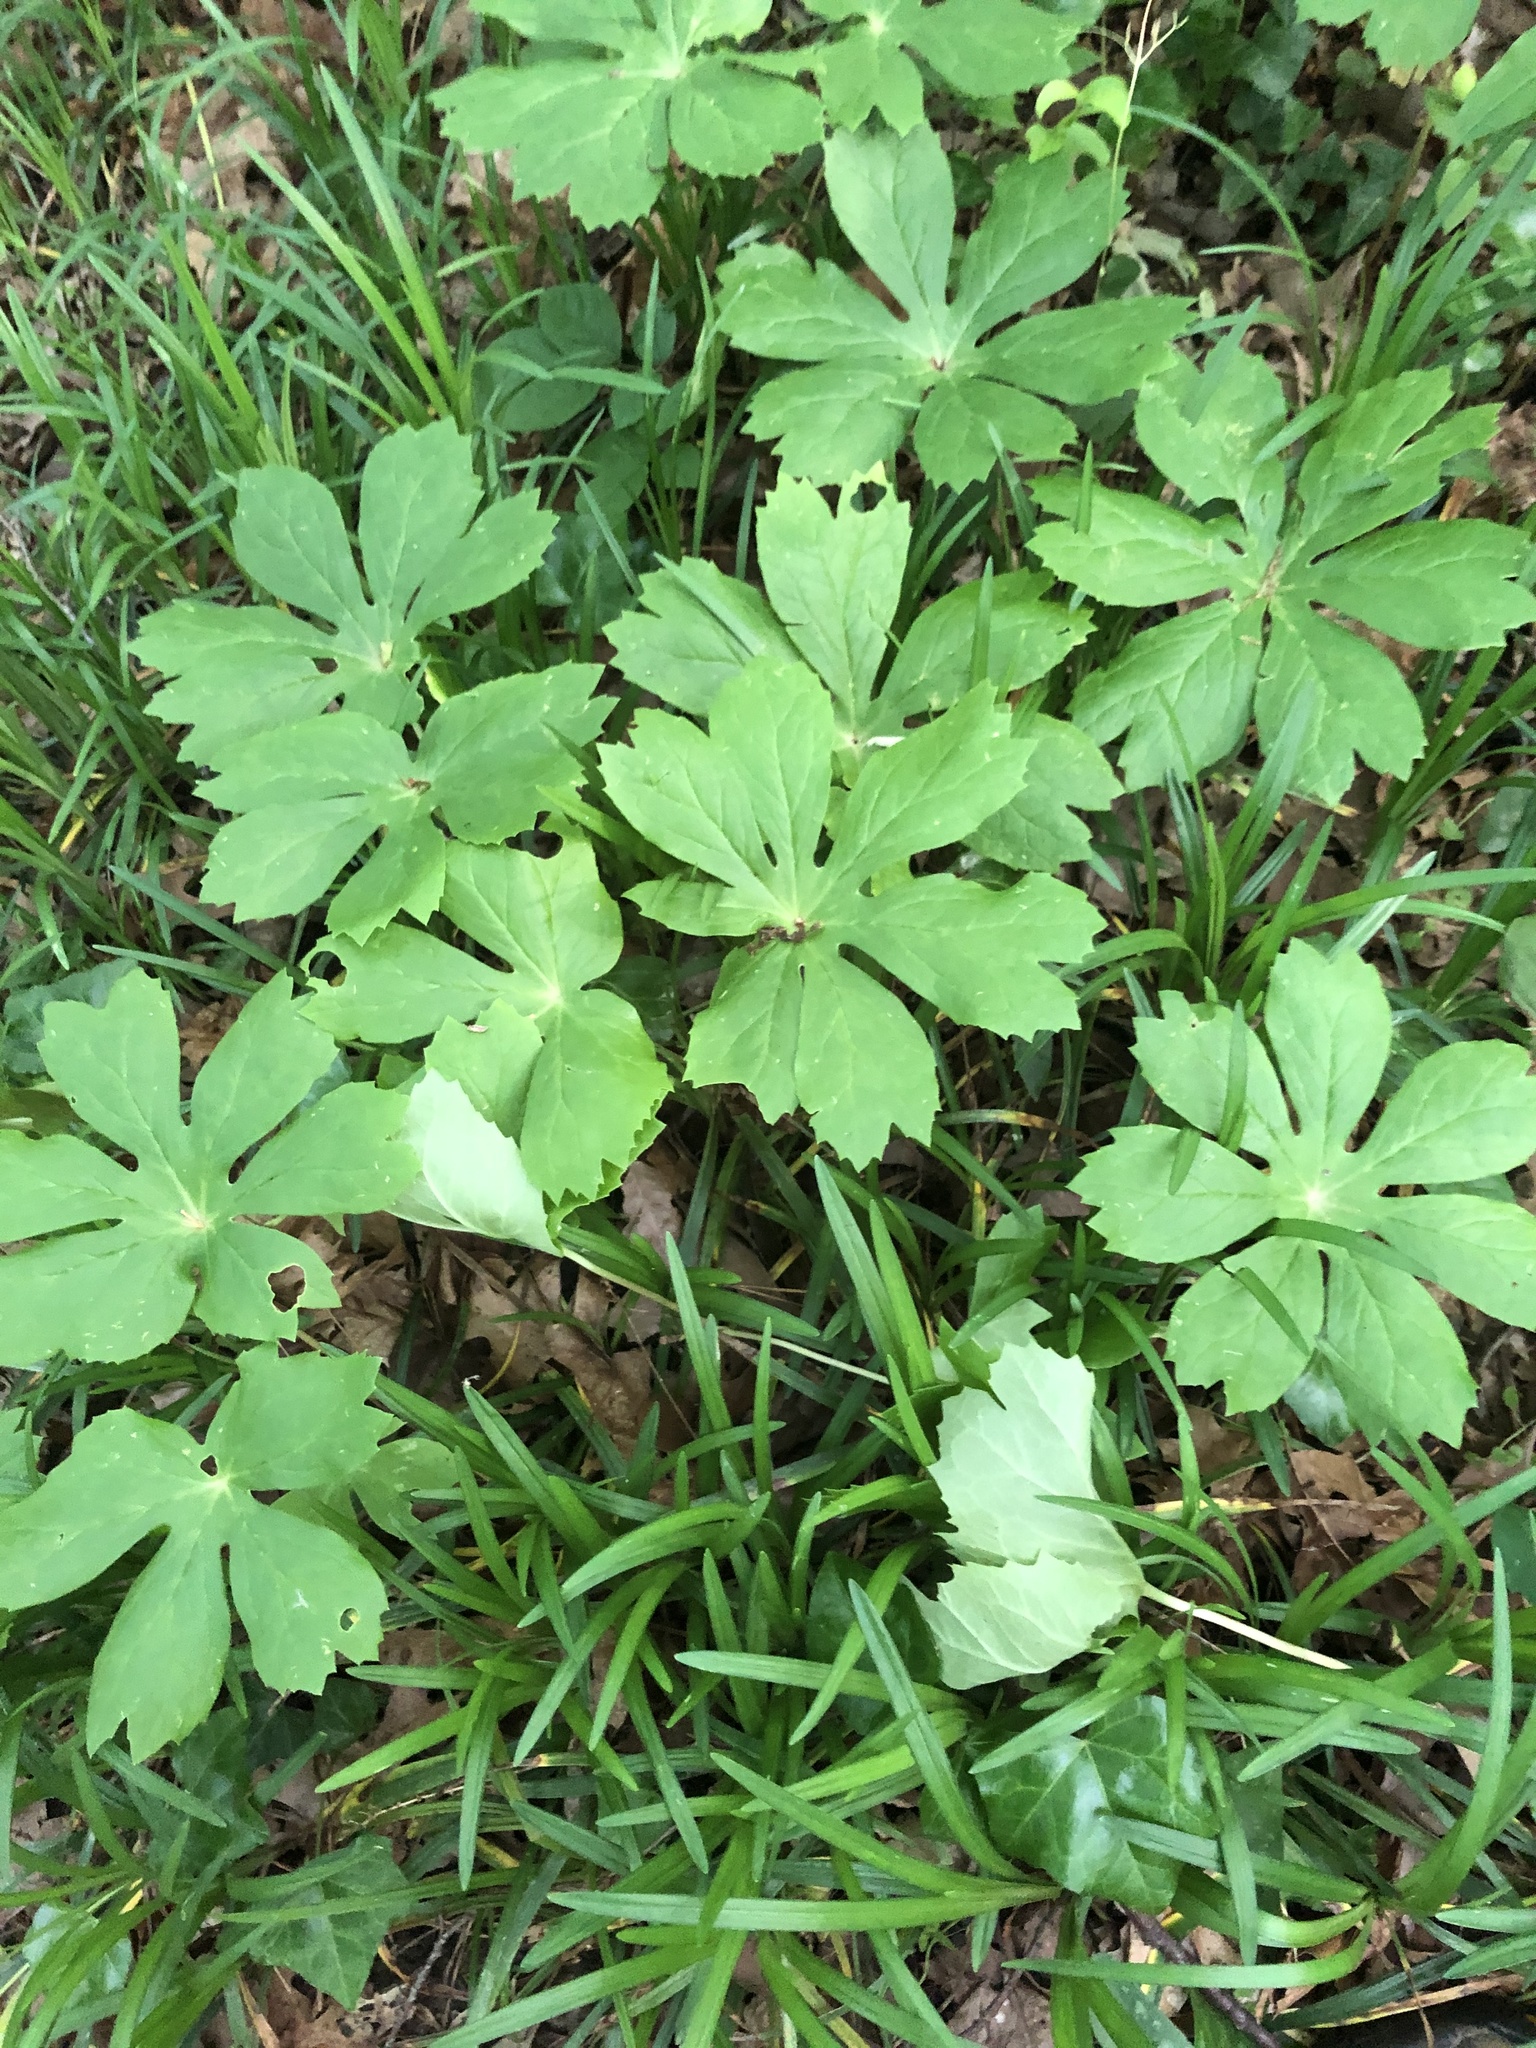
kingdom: Plantae
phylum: Tracheophyta
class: Magnoliopsida
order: Ranunculales
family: Berberidaceae
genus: Podophyllum
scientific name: Podophyllum peltatum
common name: Wild mandrake
